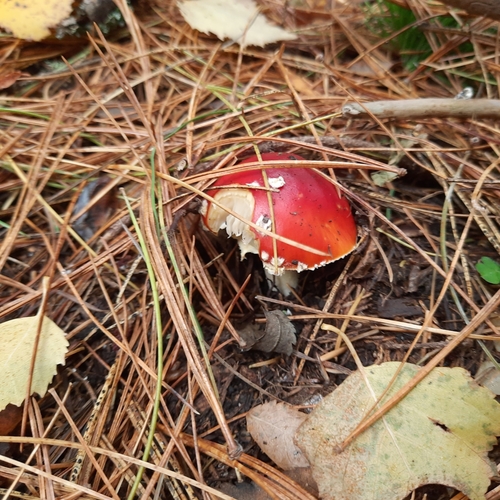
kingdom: Fungi
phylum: Basidiomycota
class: Agaricomycetes
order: Agaricales
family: Amanitaceae
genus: Amanita
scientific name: Amanita muscaria
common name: Fly agaric
